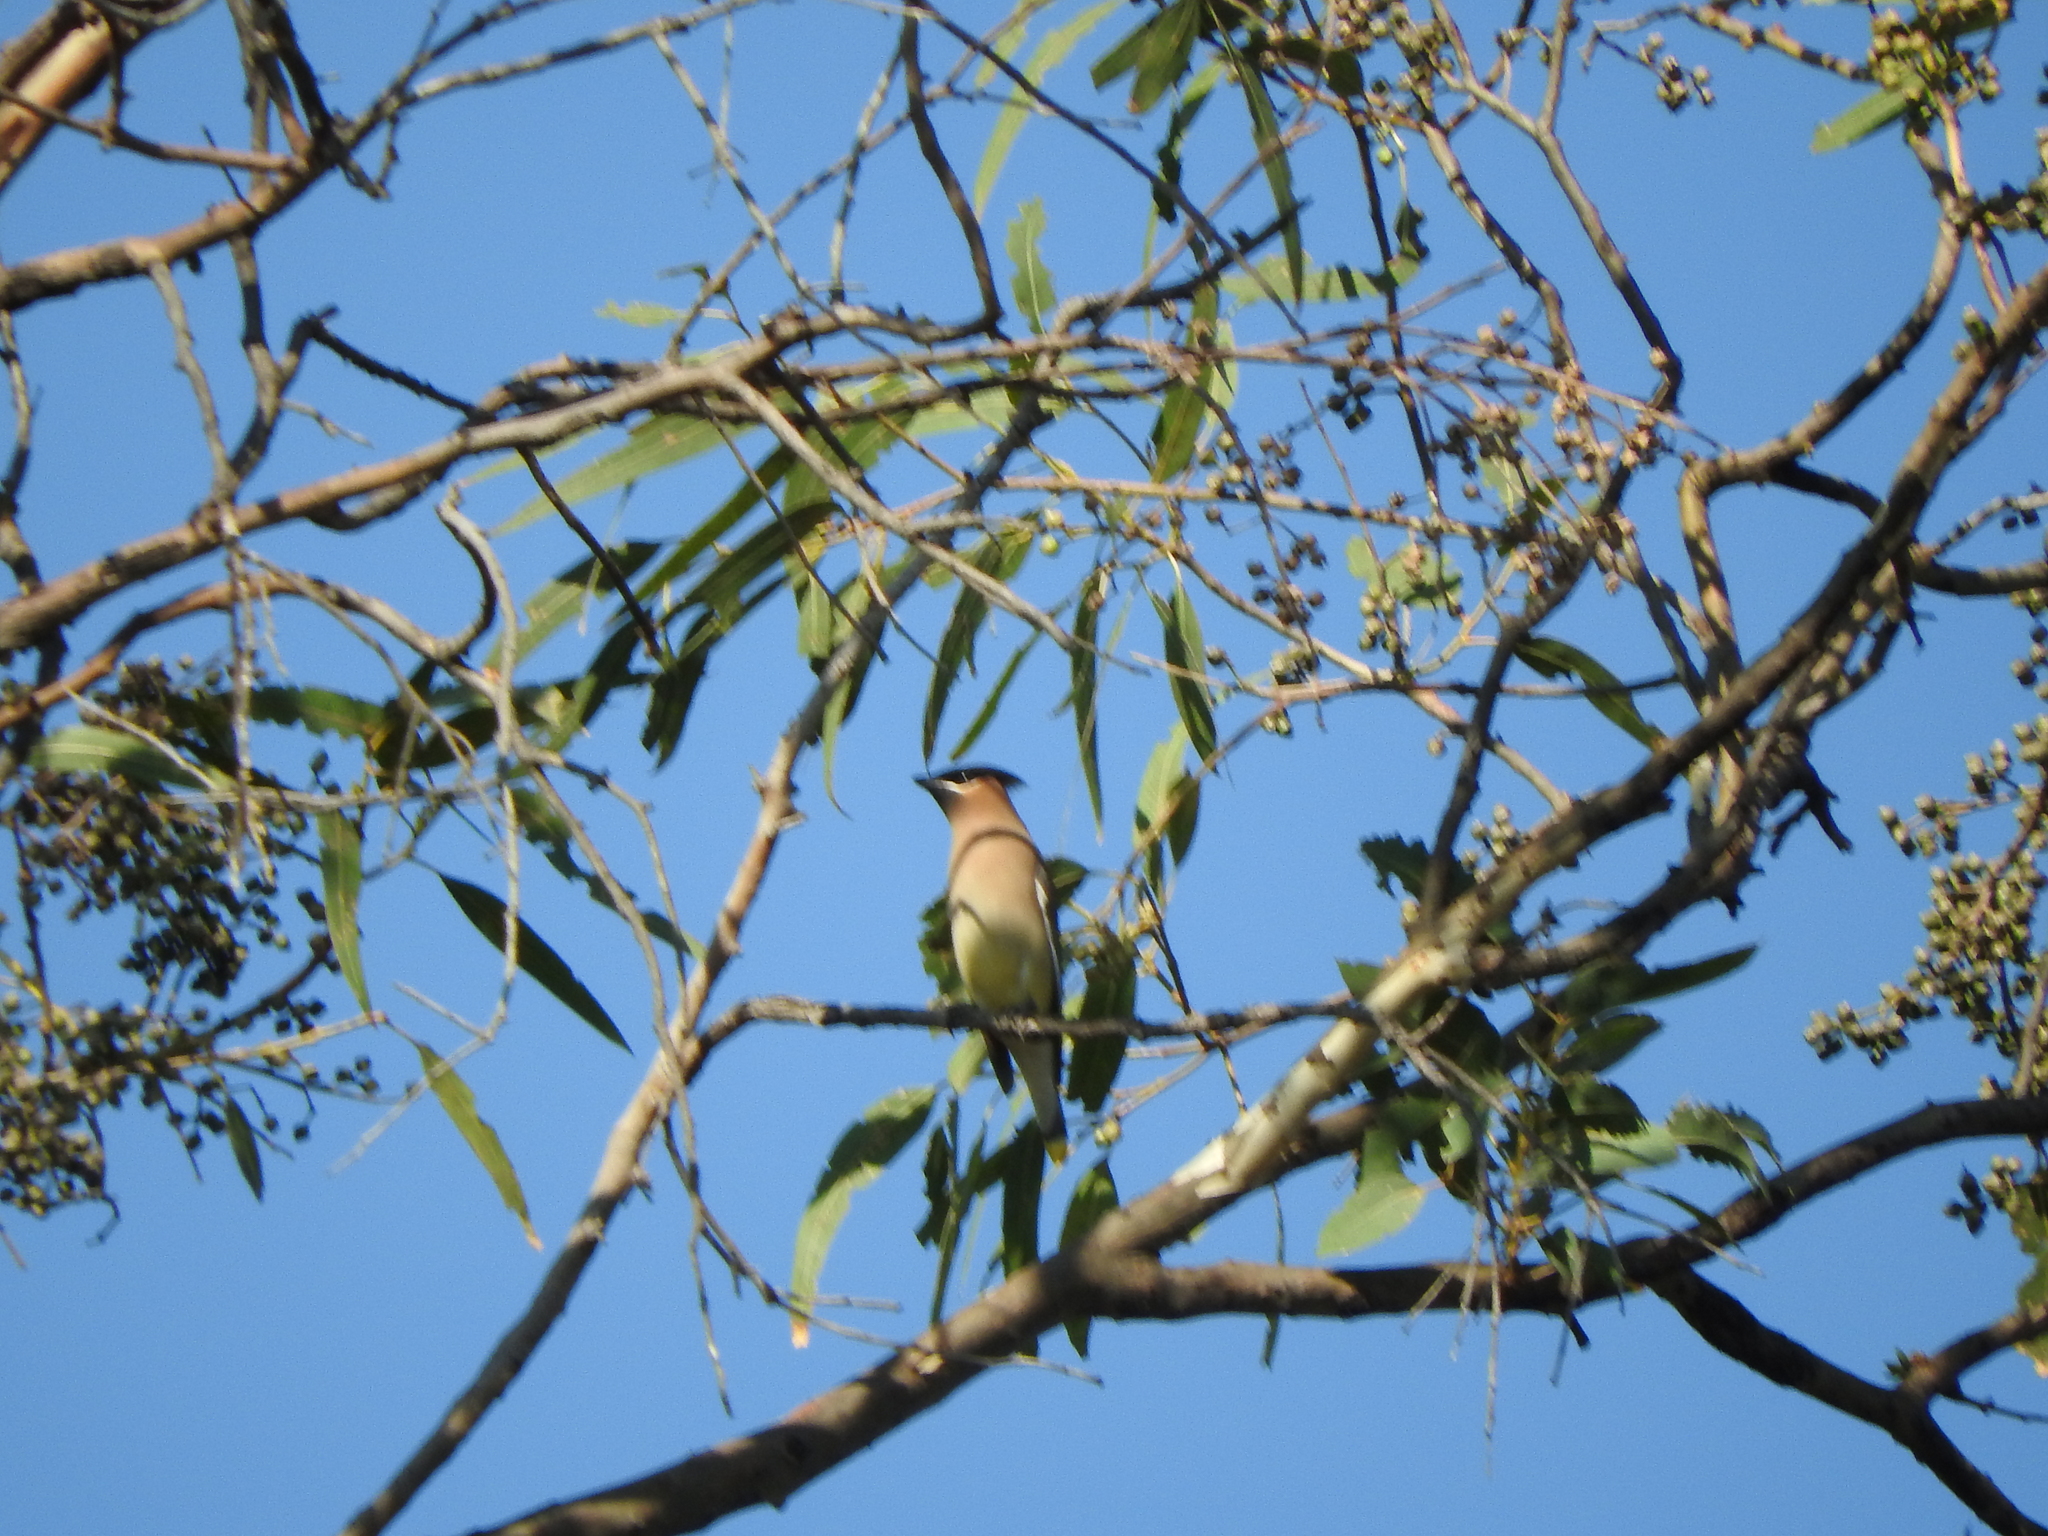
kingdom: Animalia
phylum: Chordata
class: Aves
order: Passeriformes
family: Bombycillidae
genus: Bombycilla
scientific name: Bombycilla cedrorum
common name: Cedar waxwing
